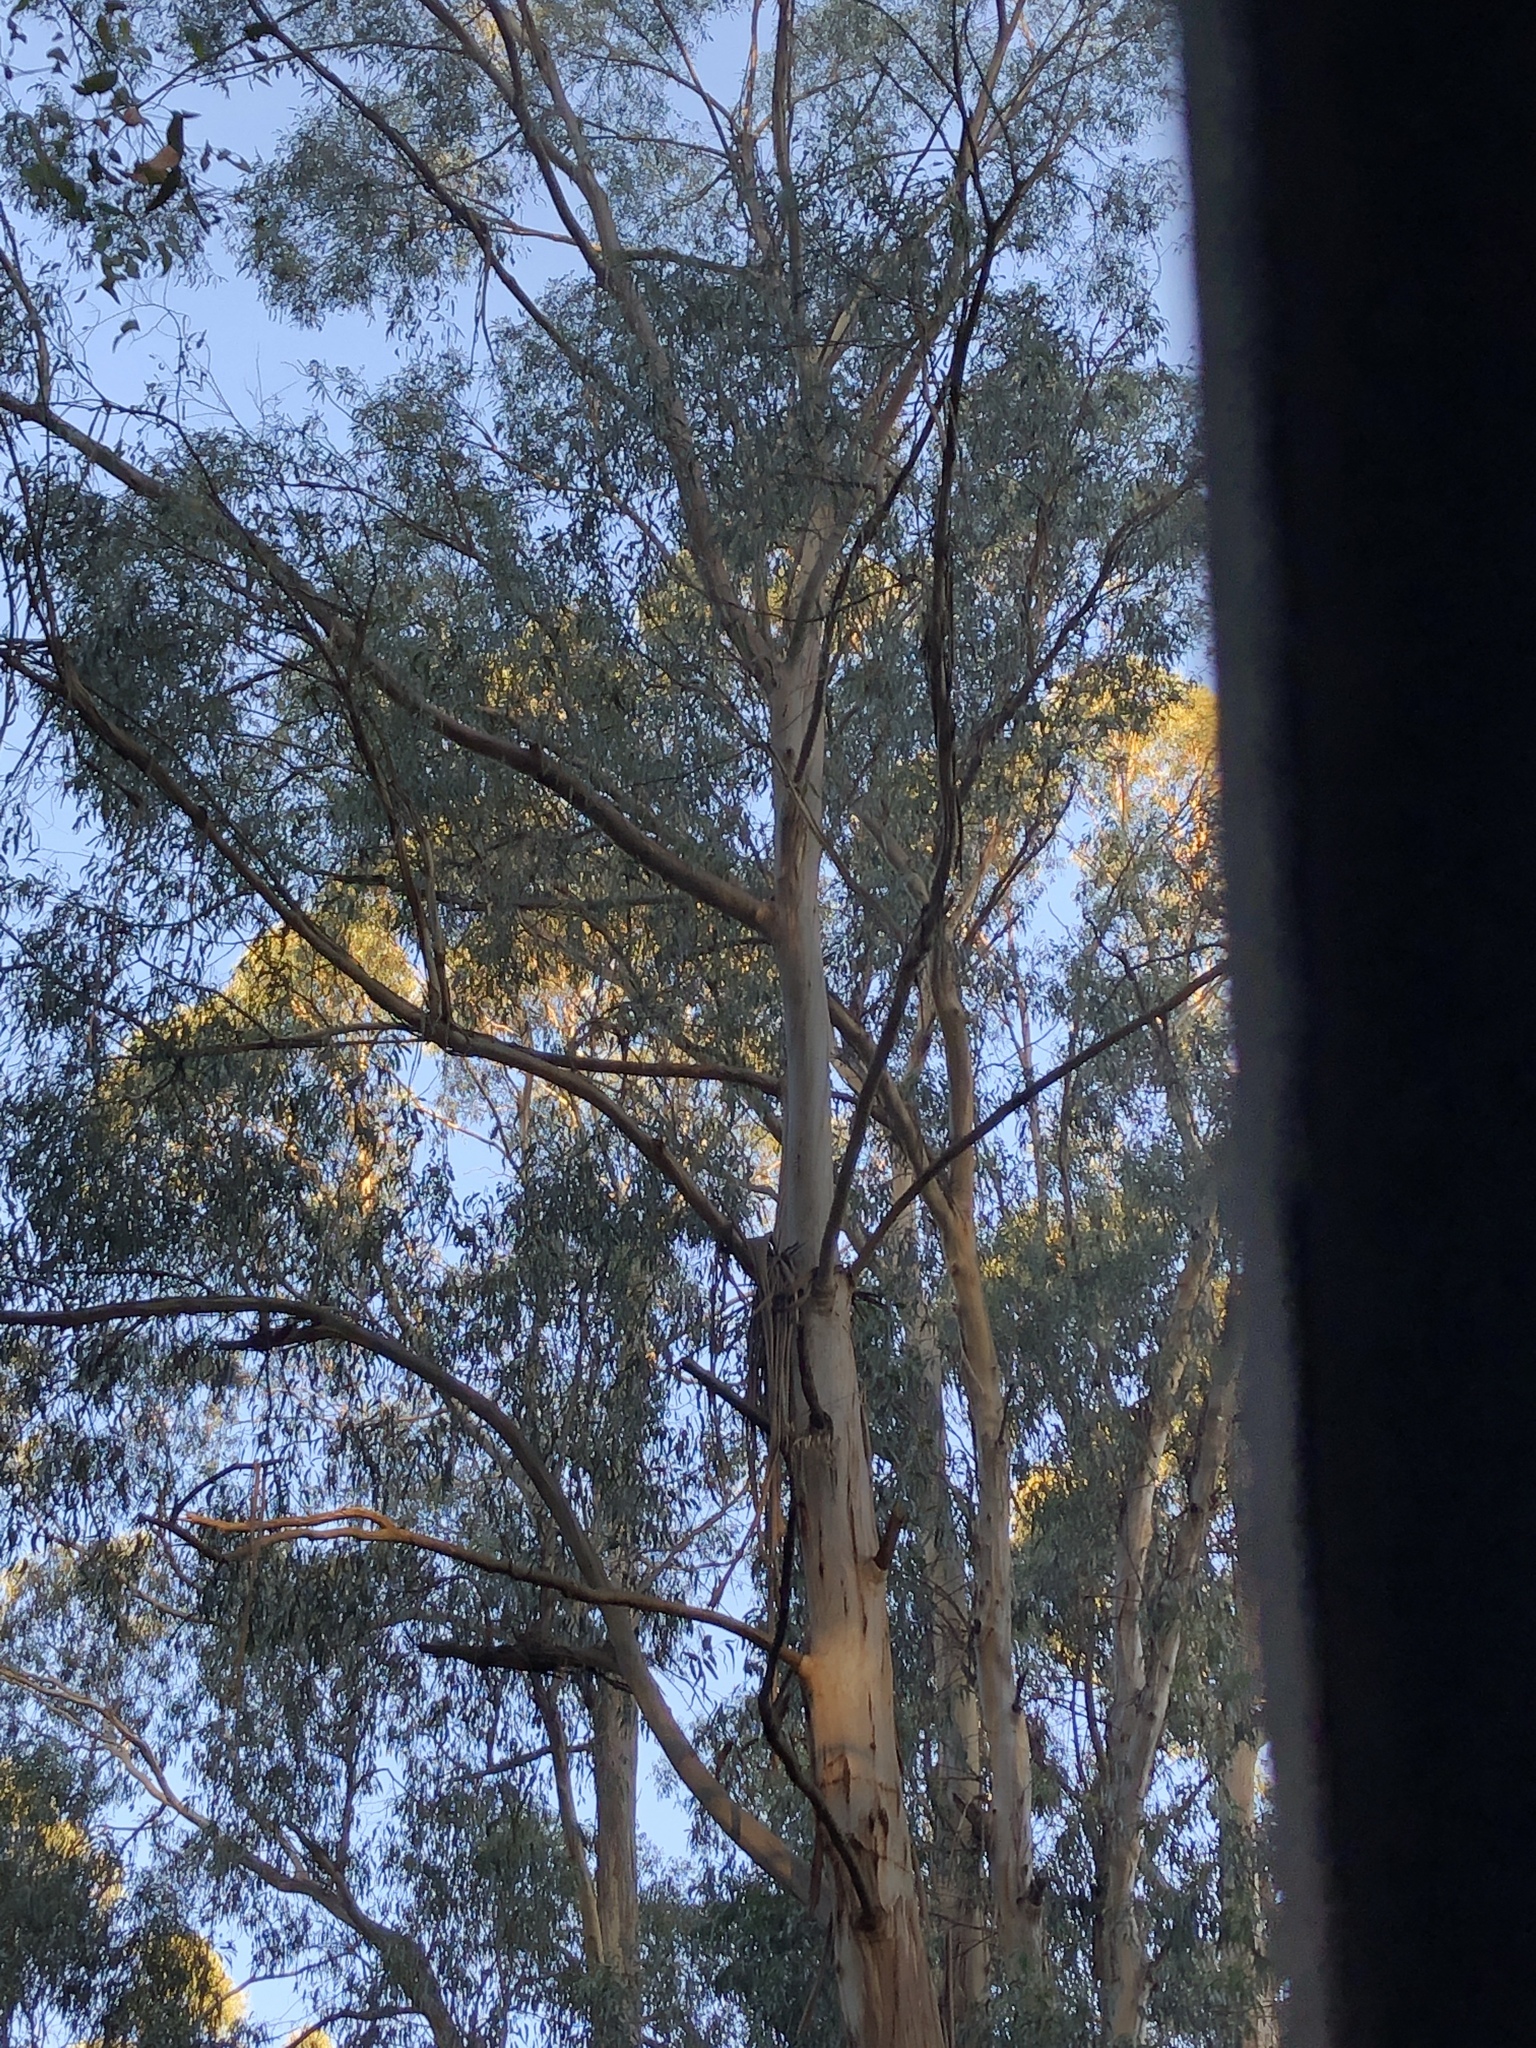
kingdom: Plantae
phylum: Tracheophyta
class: Magnoliopsida
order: Myrtales
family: Myrtaceae
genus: Eucalyptus
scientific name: Eucalyptus cypellocarpa
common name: Mountain grey gum
